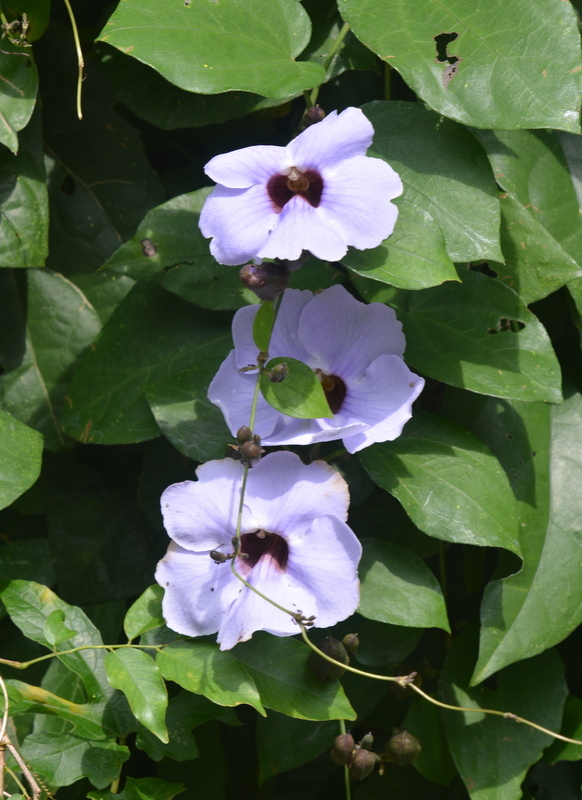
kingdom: Plantae
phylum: Tracheophyta
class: Magnoliopsida
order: Lamiales
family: Acanthaceae
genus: Thunbergia
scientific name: Thunbergia laurifolia
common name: Laurel-leaved thunbergia
